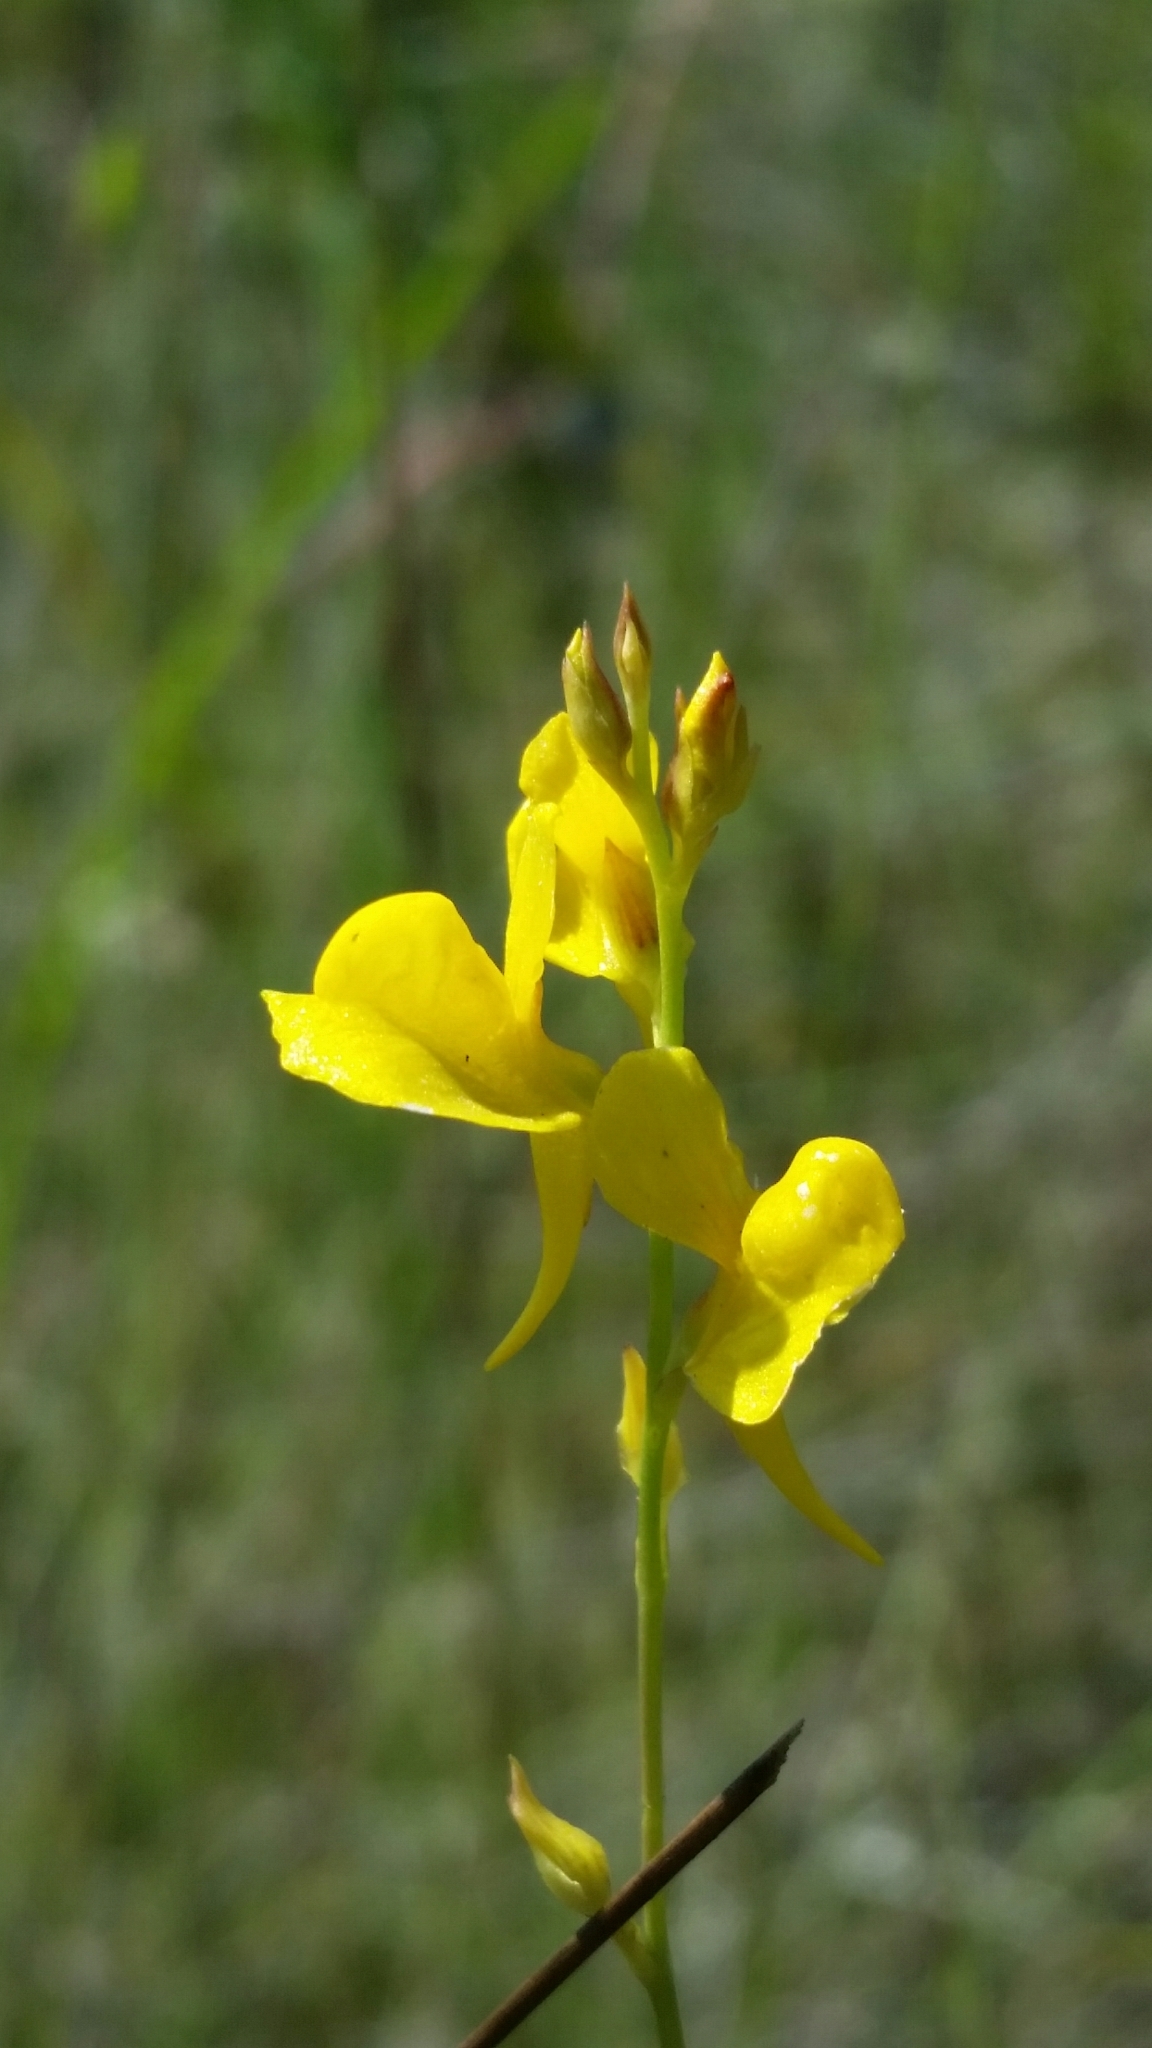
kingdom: Plantae
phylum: Tracheophyta
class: Magnoliopsida
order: Lamiales
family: Lentibulariaceae
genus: Utricularia
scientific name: Utricularia juncea
